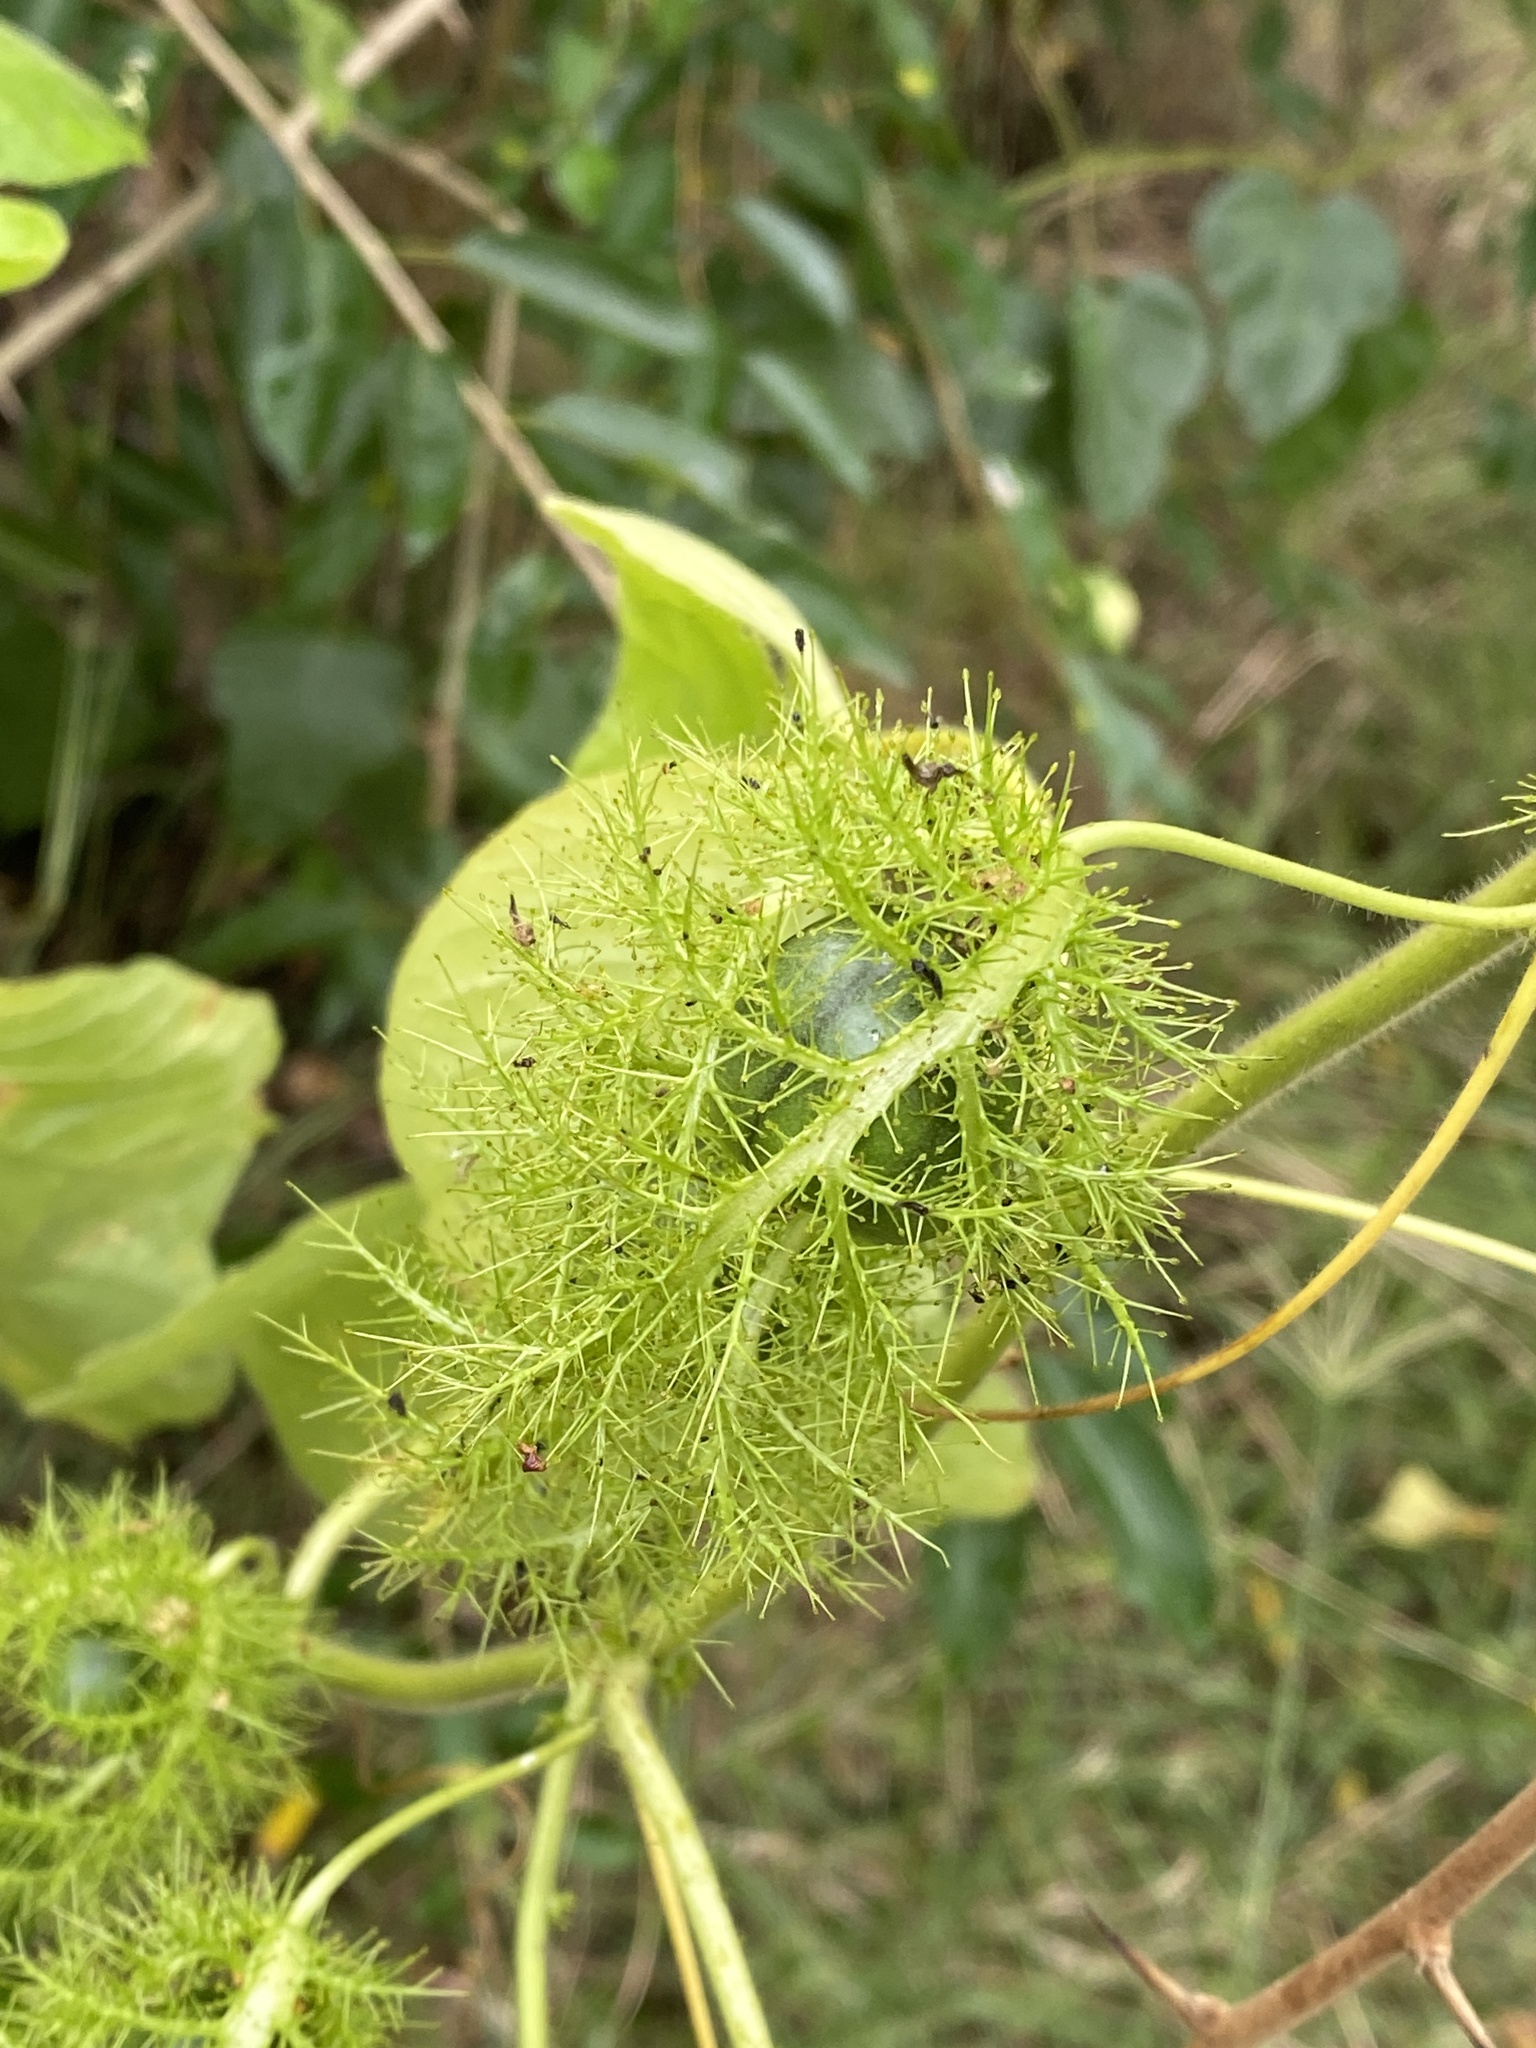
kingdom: Plantae
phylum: Tracheophyta
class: Magnoliopsida
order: Malpighiales
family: Passifloraceae
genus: Passiflora
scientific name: Passiflora foetida
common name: Fetid passionflower
